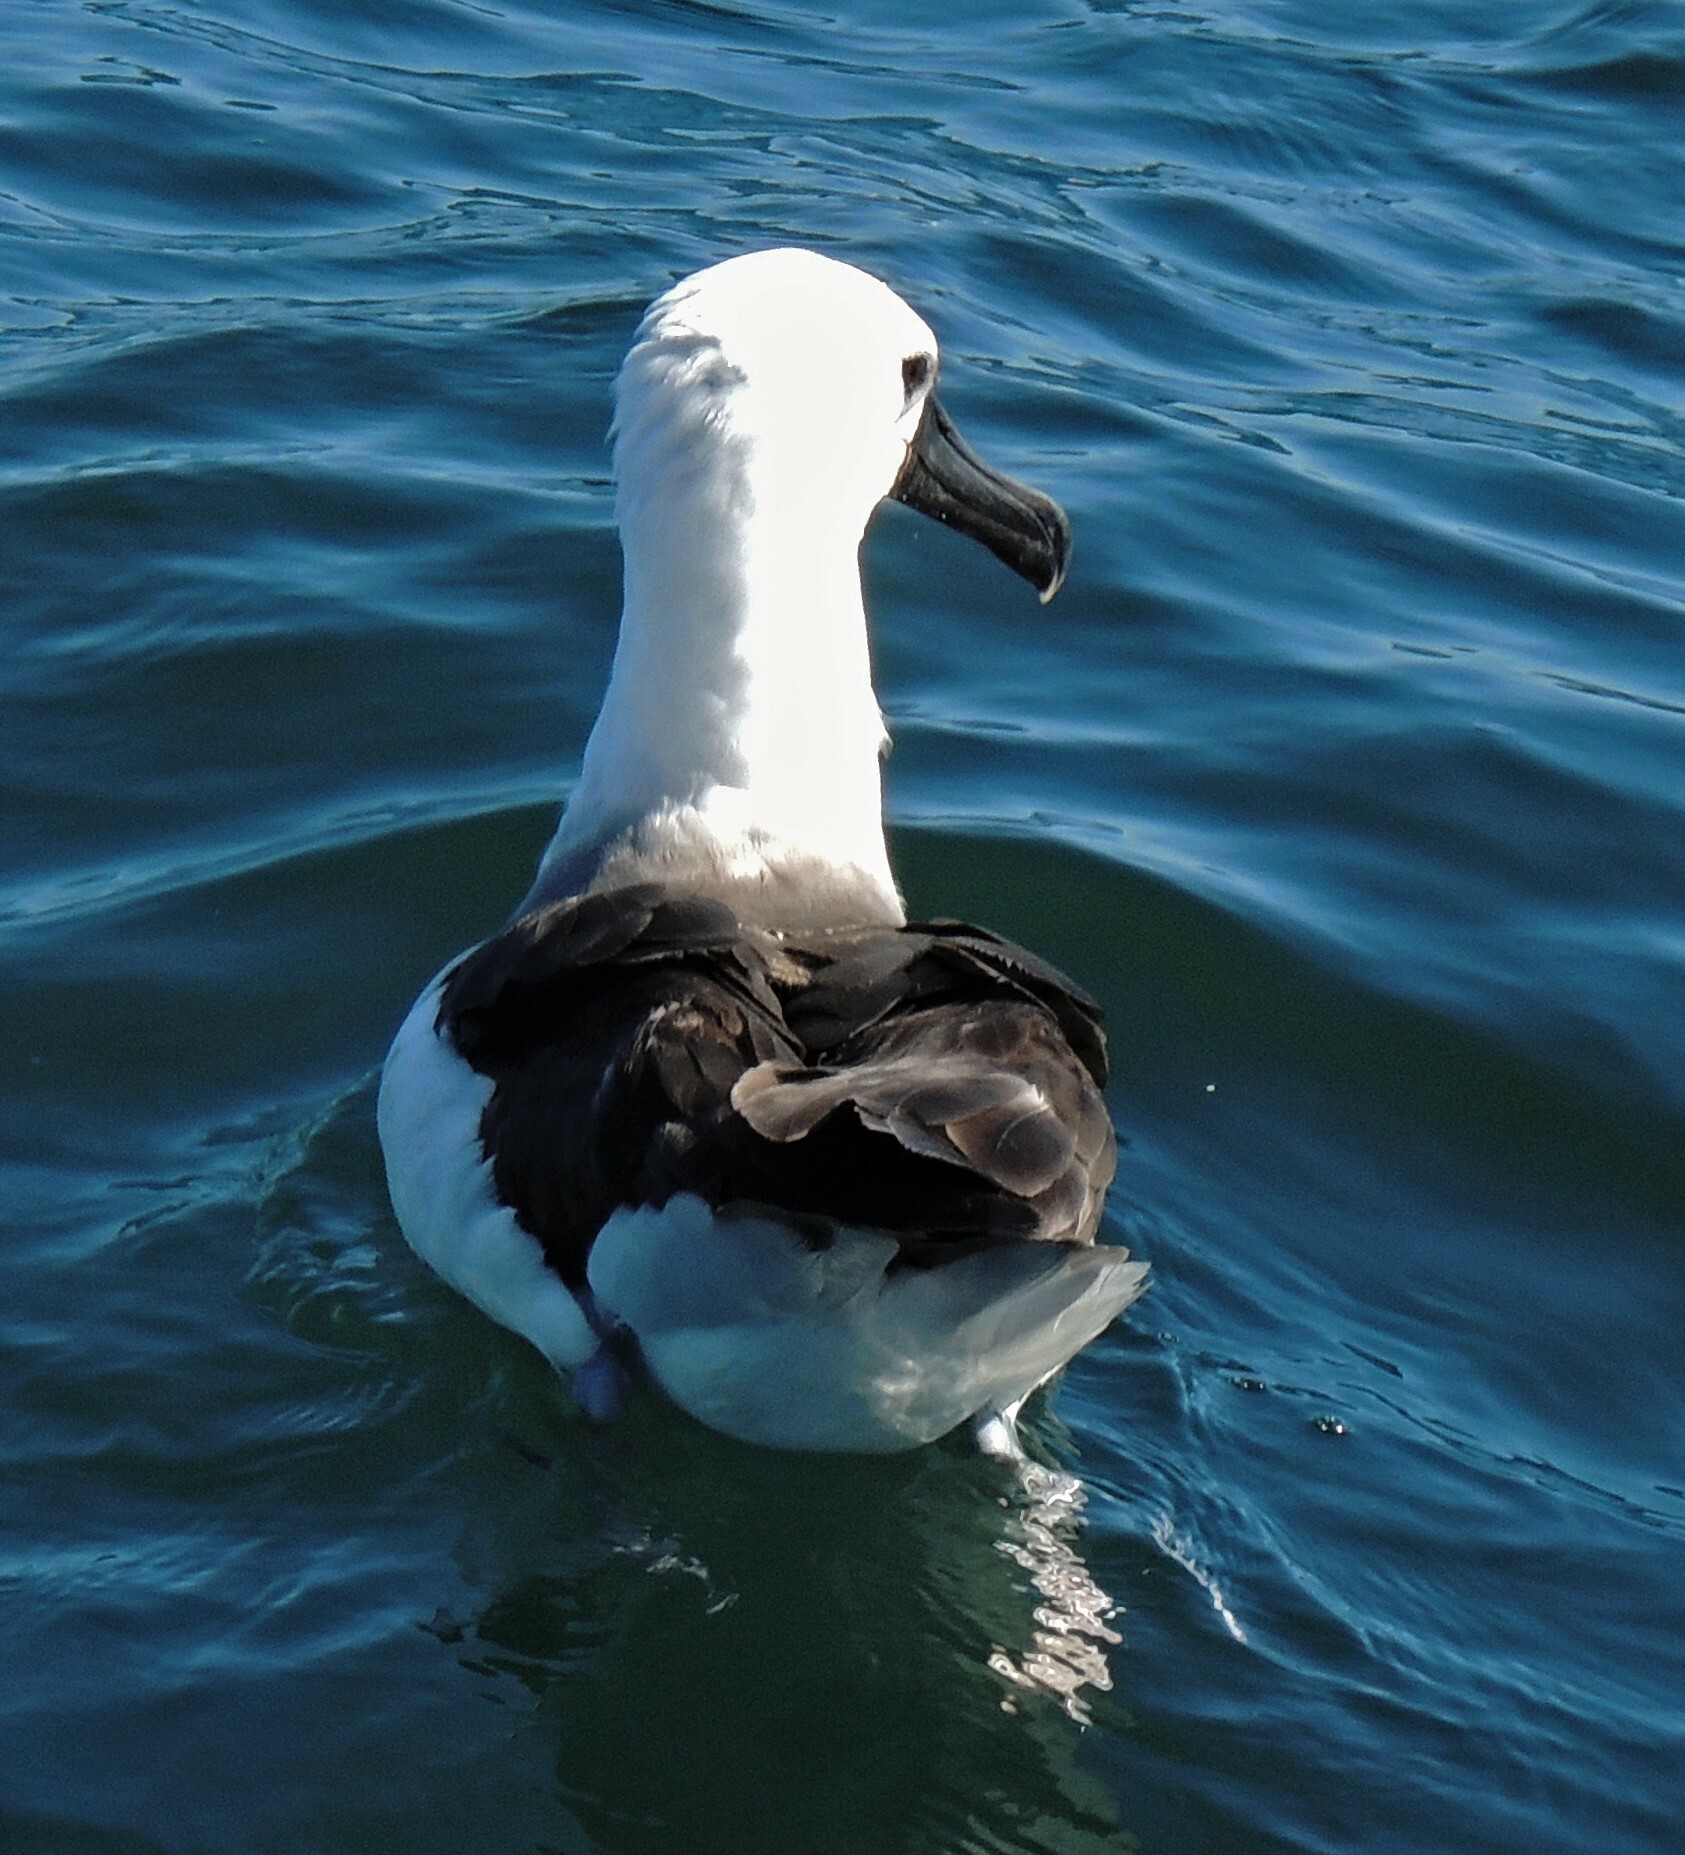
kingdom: Animalia
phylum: Chordata
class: Aves
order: Procellariiformes
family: Diomedeidae
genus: Thalassarche
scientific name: Thalassarche chlororhynchos
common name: Atlantic yellow-nosed albatross
